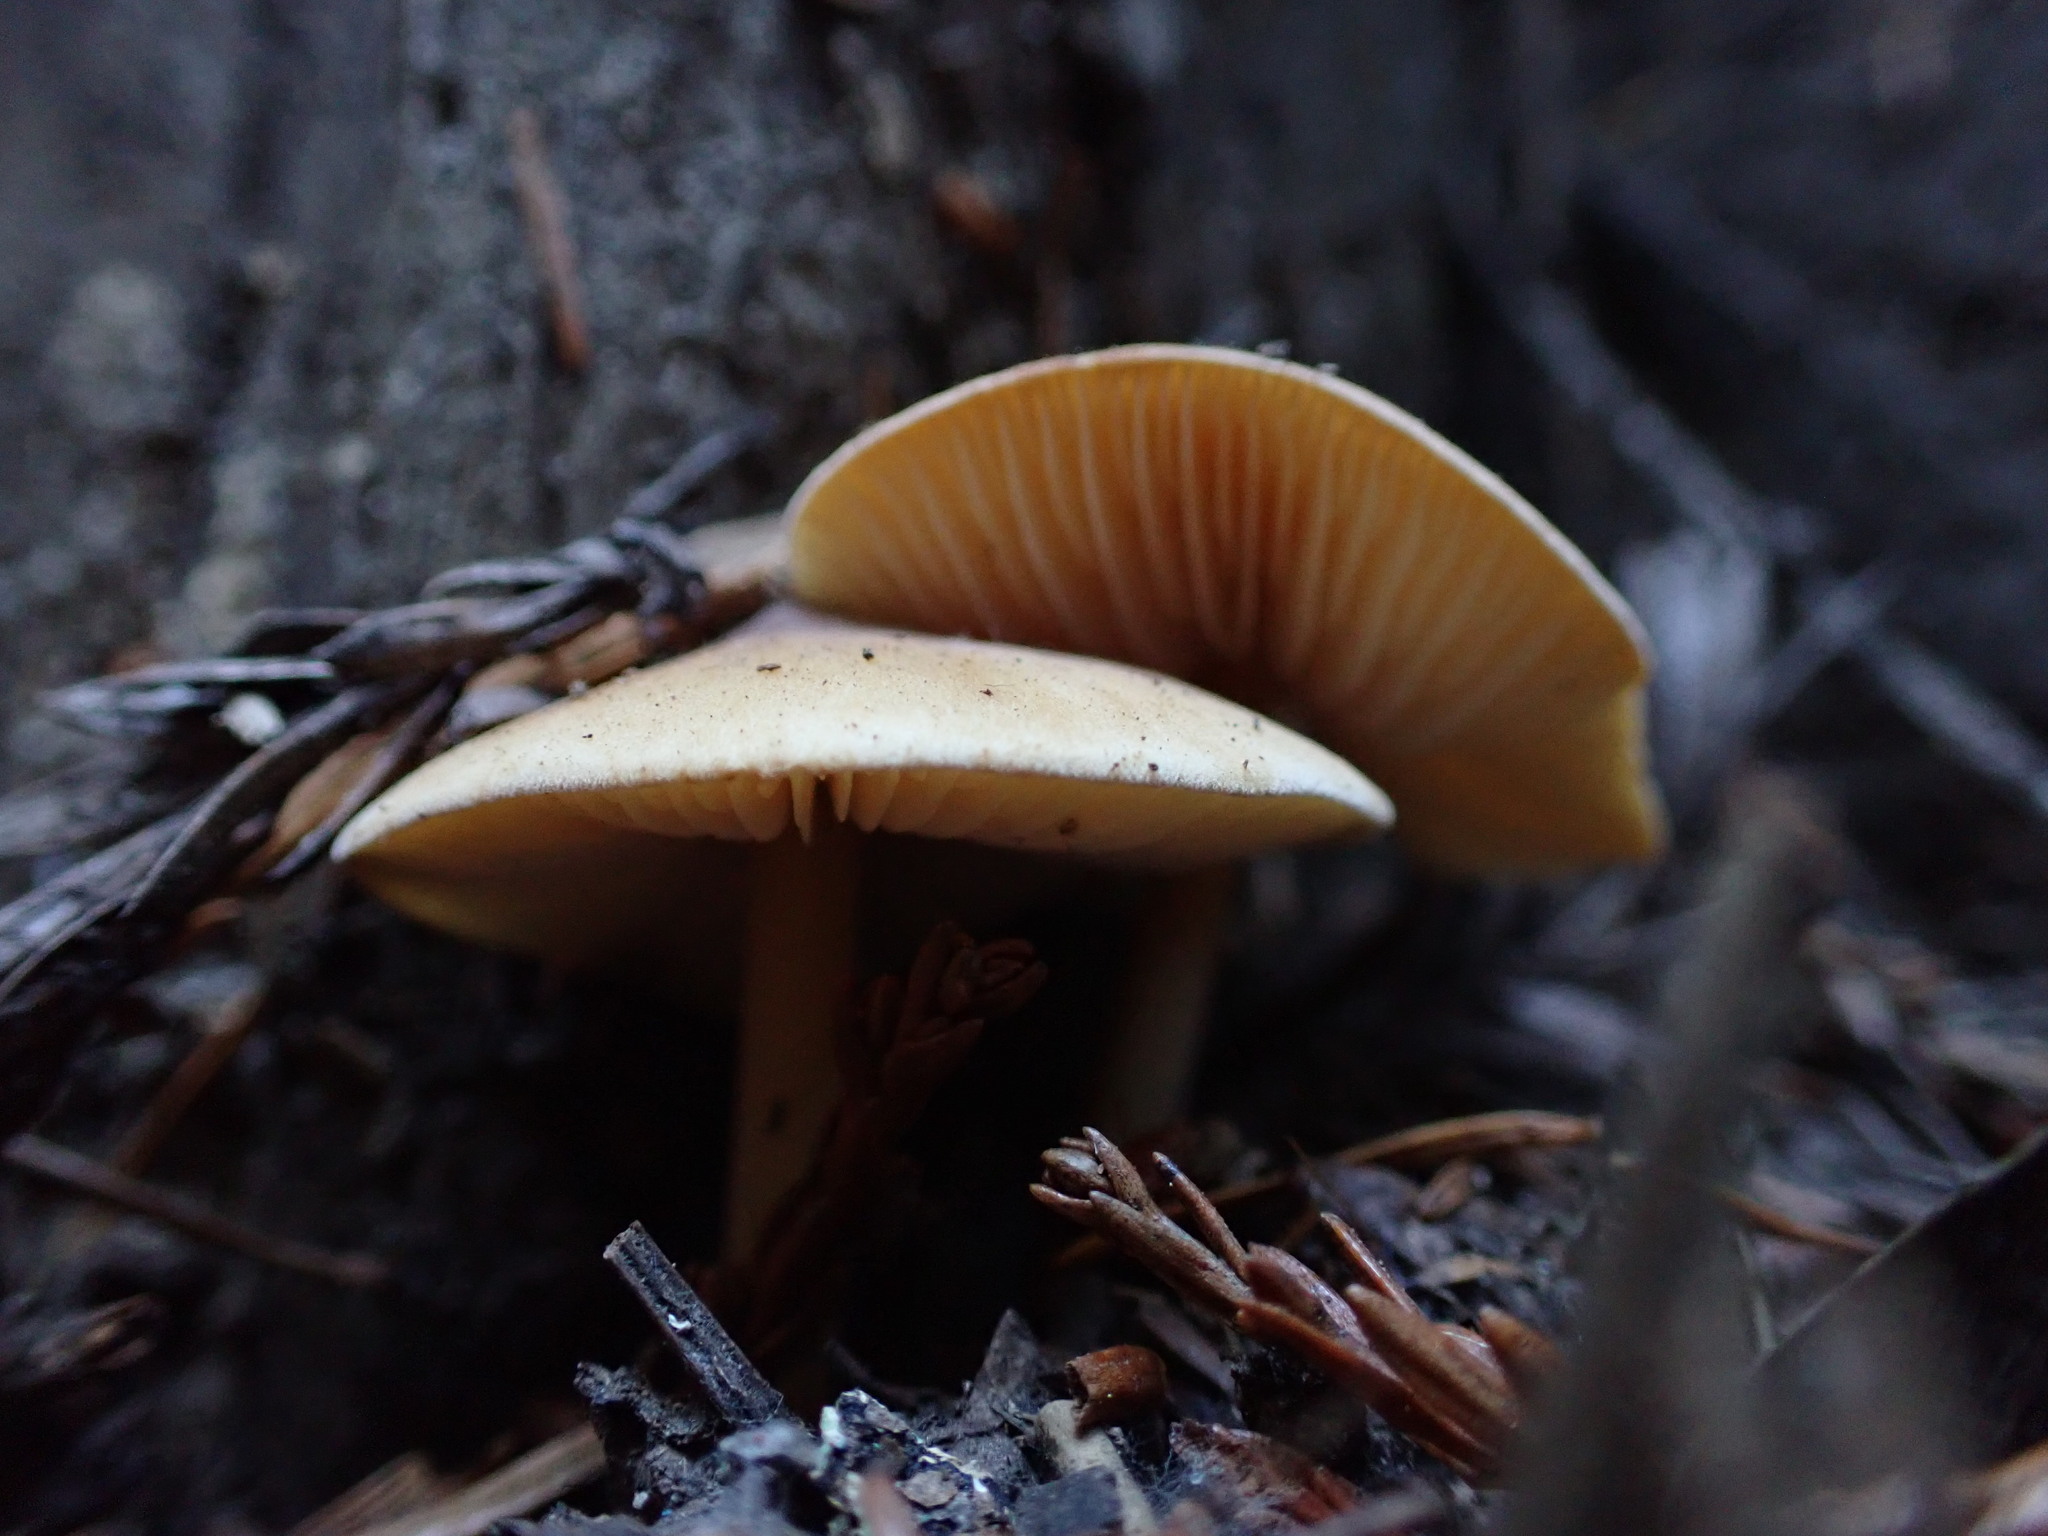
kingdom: Fungi
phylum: Basidiomycota
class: Agaricomycetes
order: Agaricales
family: Tricholomataceae
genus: Caulorhiza
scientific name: Caulorhiza umbonata
